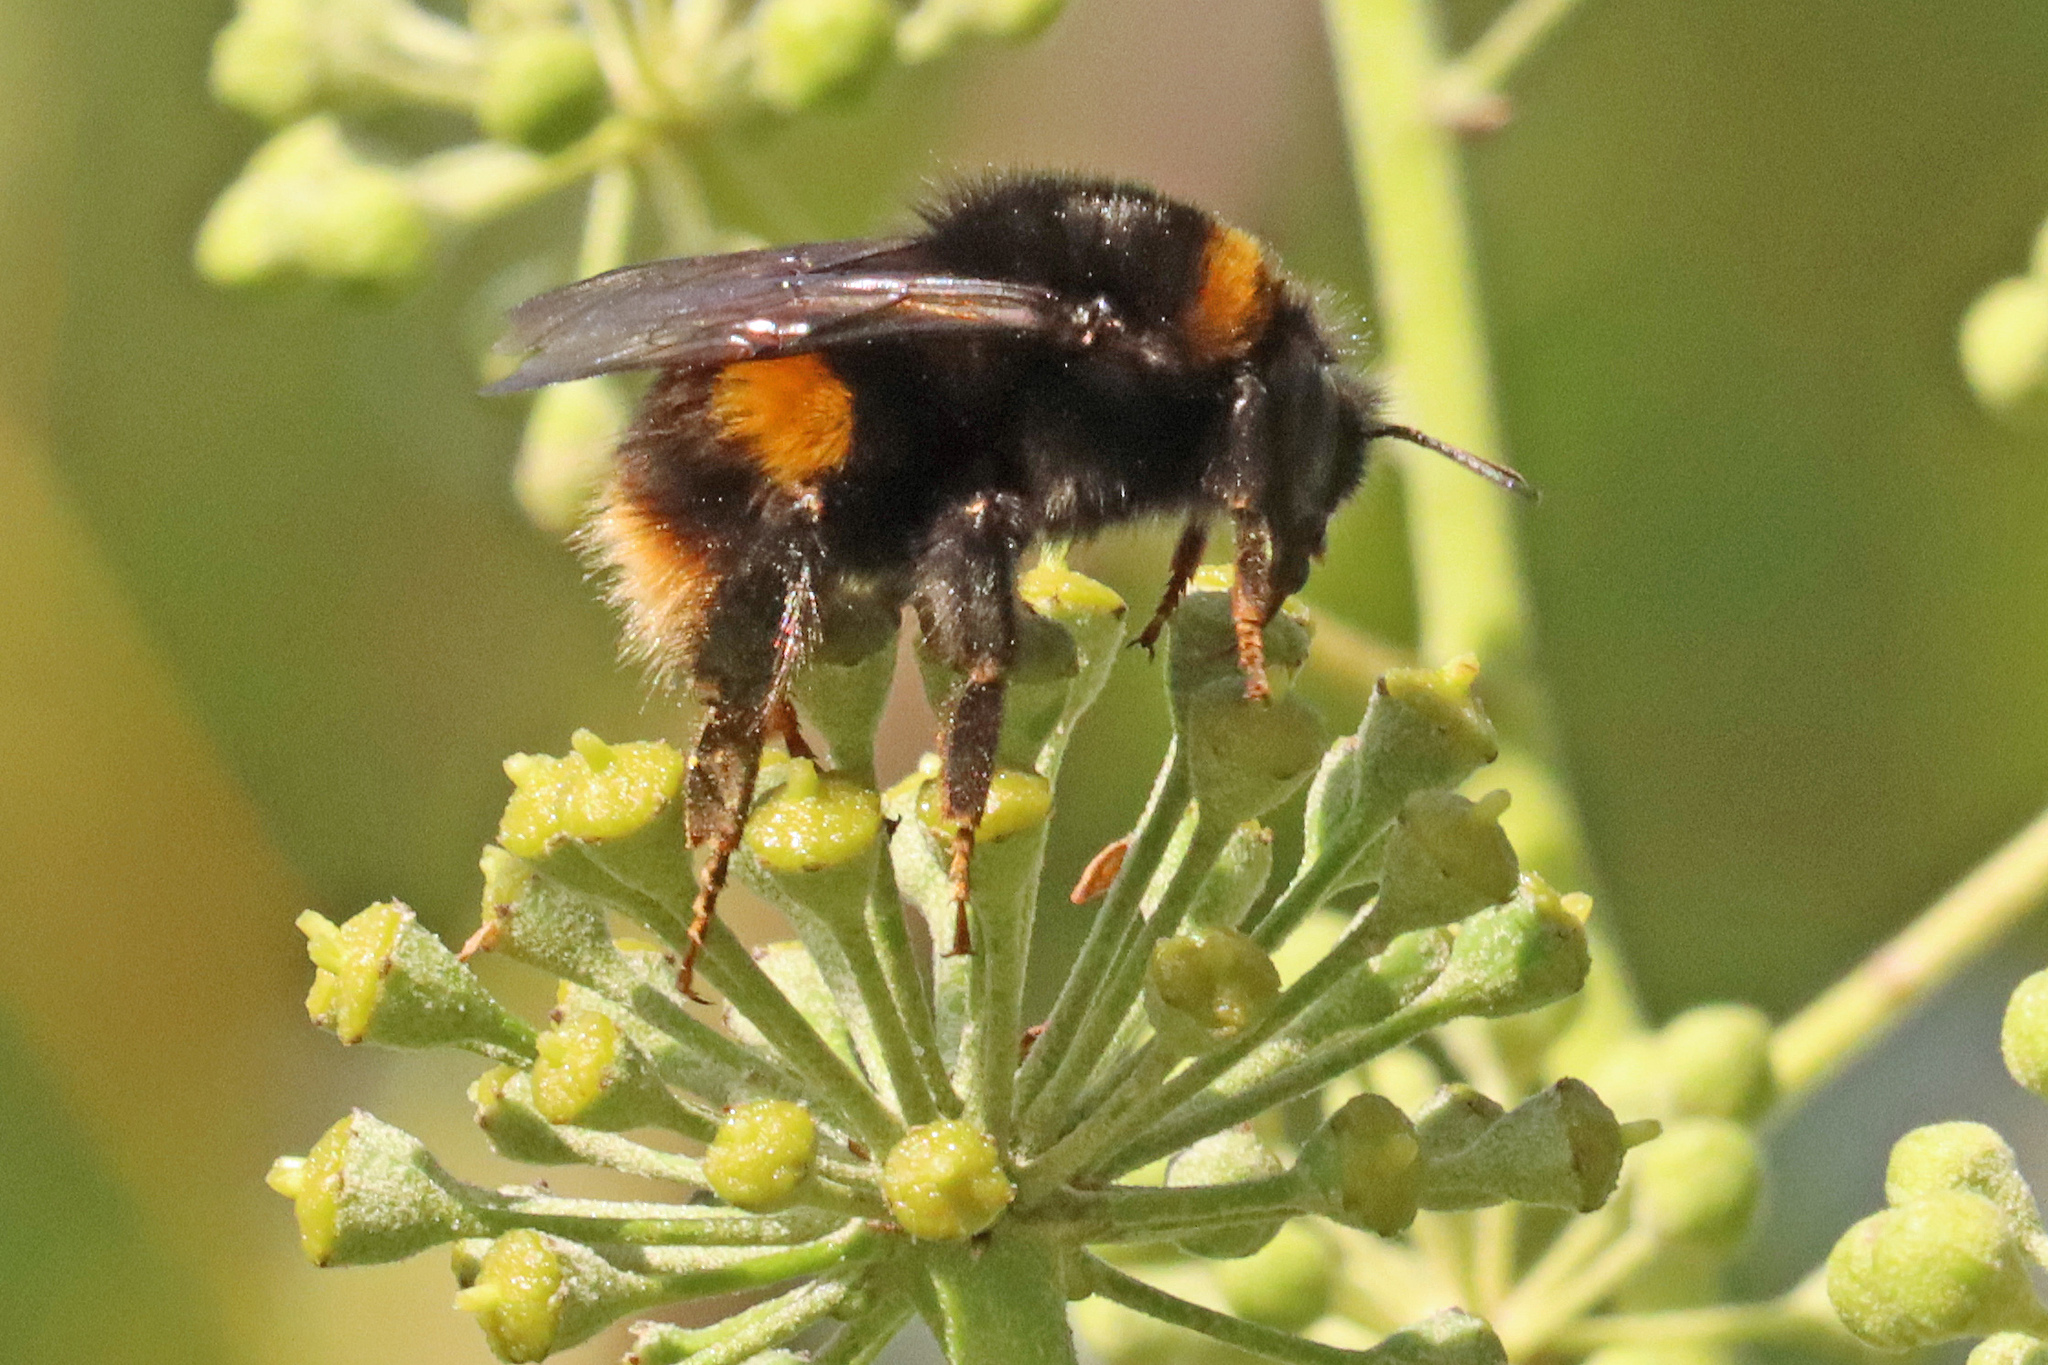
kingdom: Animalia
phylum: Arthropoda
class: Insecta
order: Hymenoptera
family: Apidae
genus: Bombus
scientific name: Bombus terrestris
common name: Buff-tailed bumblebee
